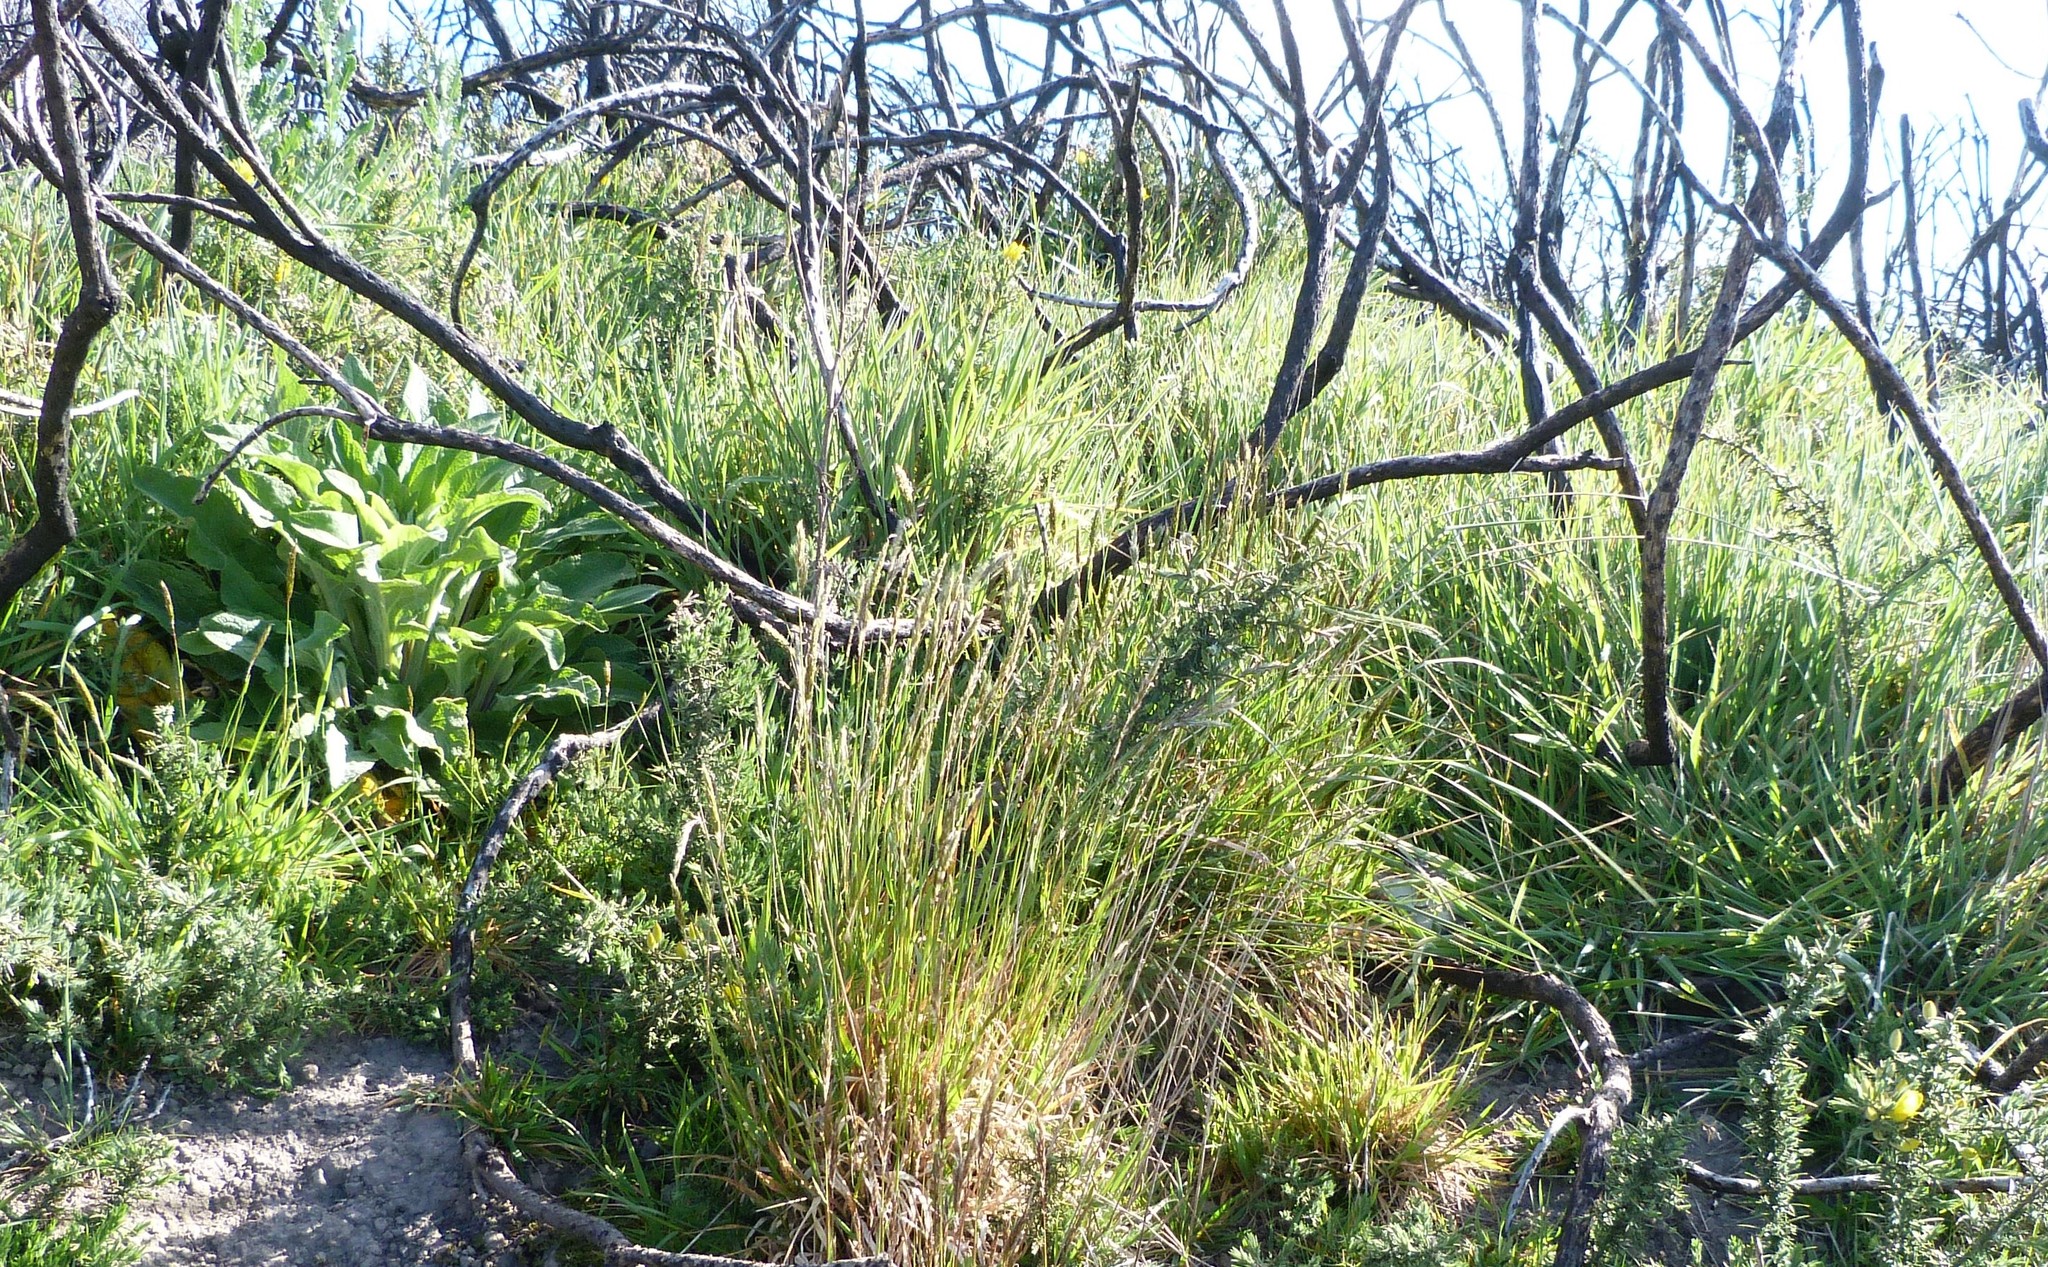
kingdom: Plantae
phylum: Tracheophyta
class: Liliopsida
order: Poales
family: Poaceae
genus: Anthoxanthum
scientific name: Anthoxanthum odoratum
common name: Sweet vernalgrass
